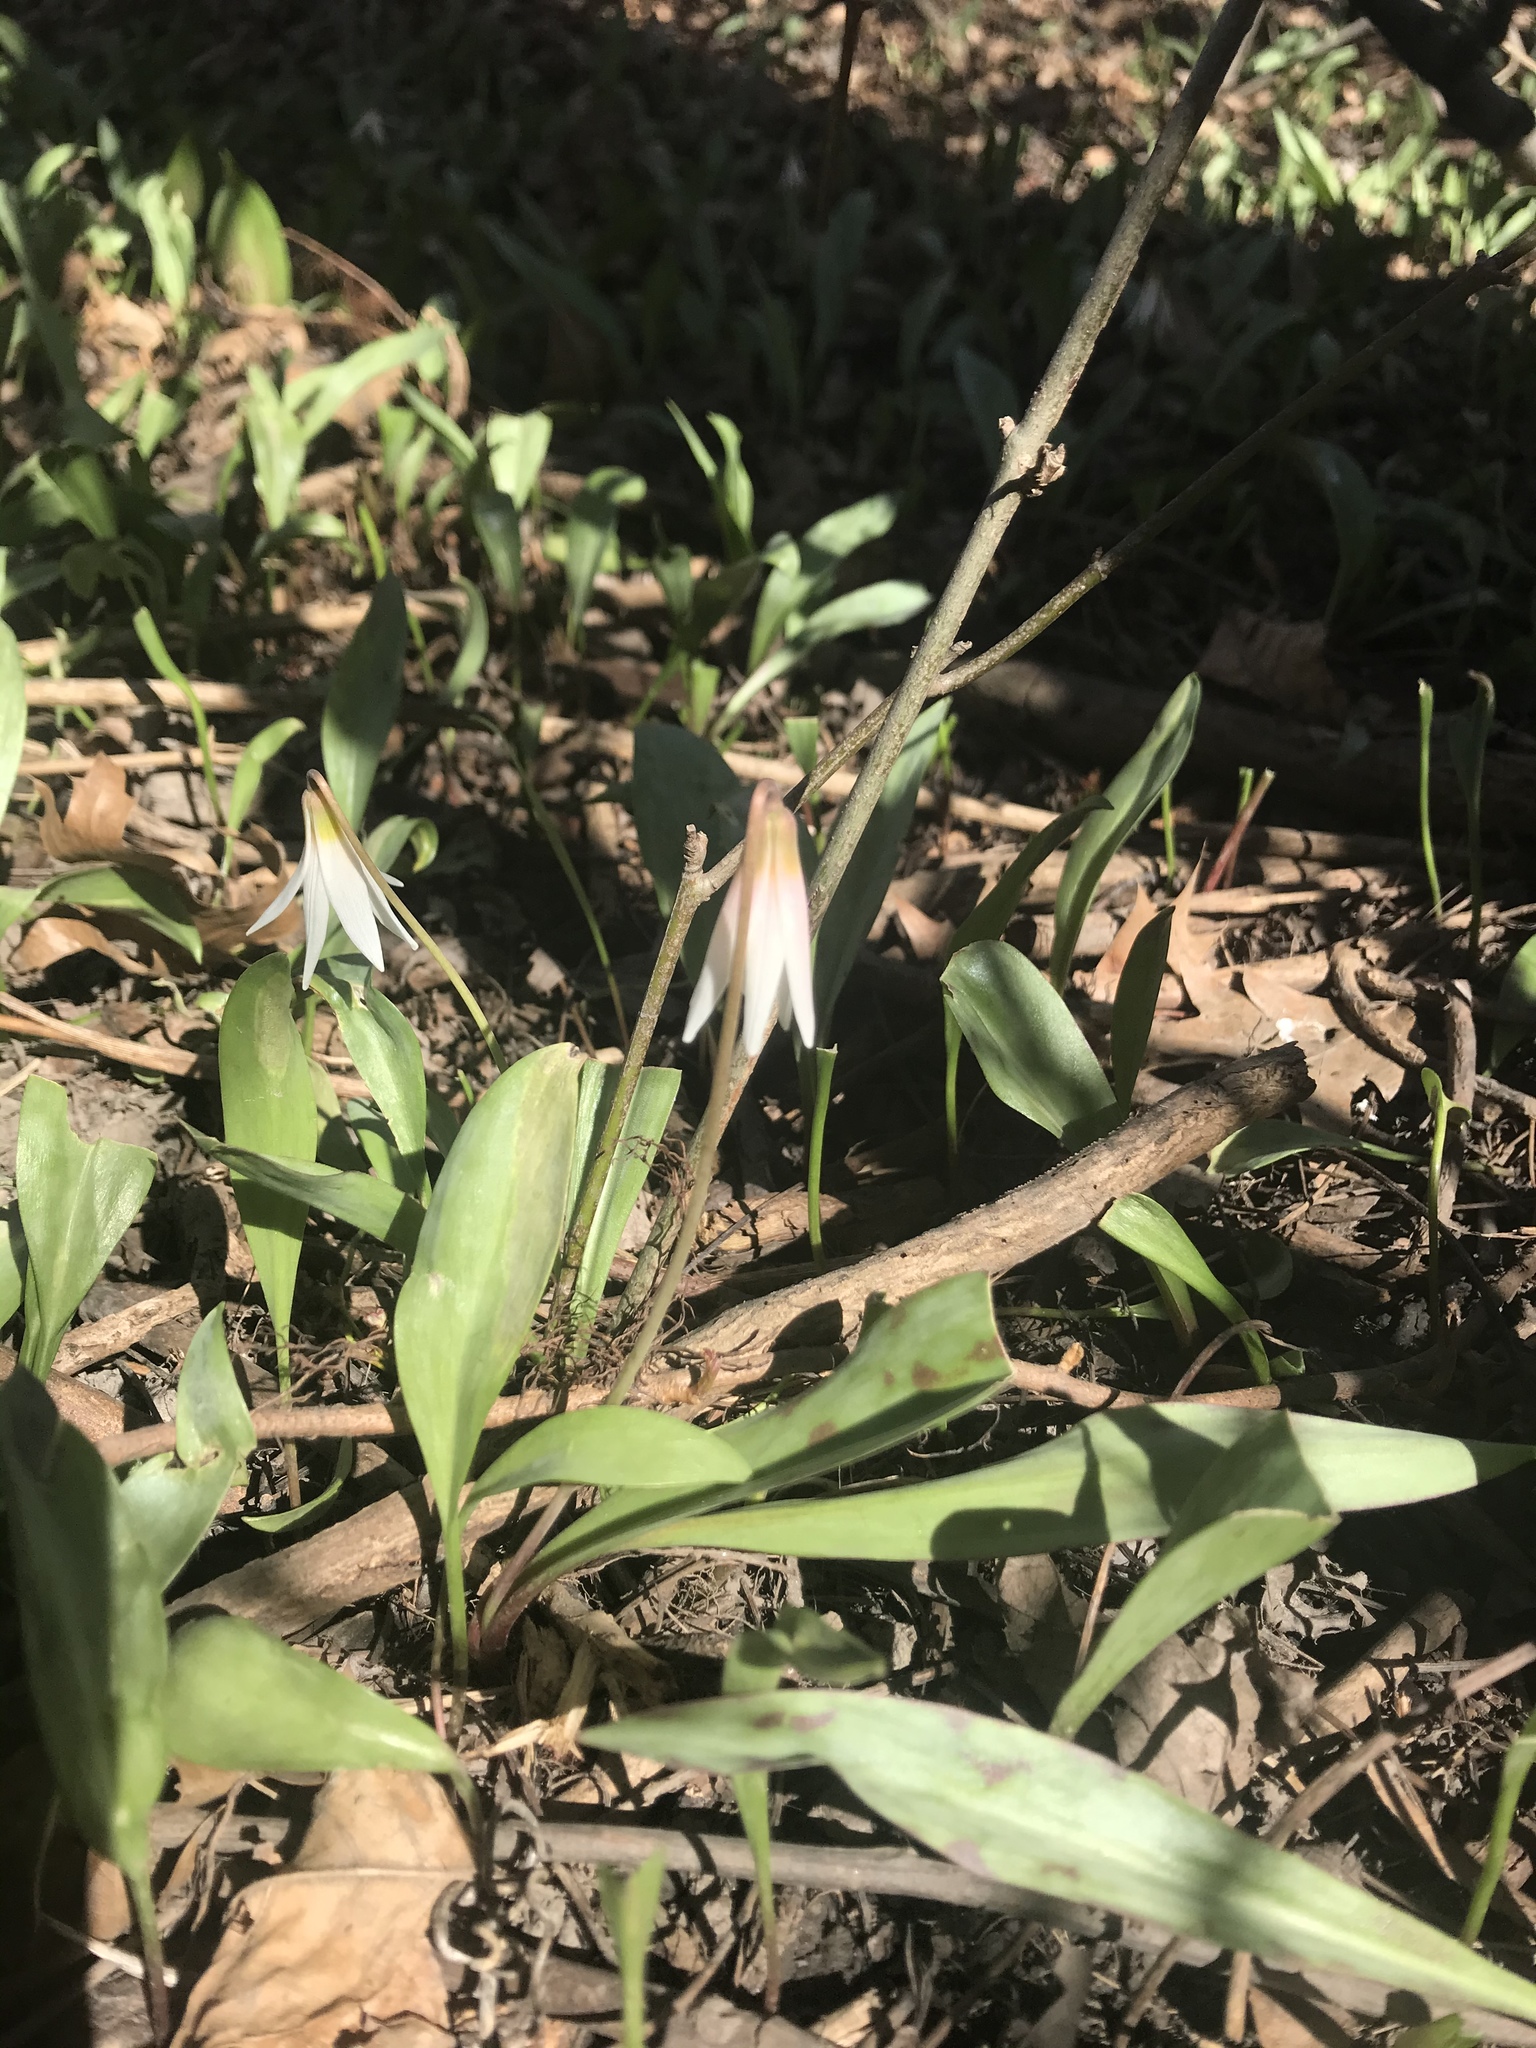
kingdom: Plantae
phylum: Tracheophyta
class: Liliopsida
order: Liliales
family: Liliaceae
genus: Erythronium
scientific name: Erythronium albidum
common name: White trout-lily
